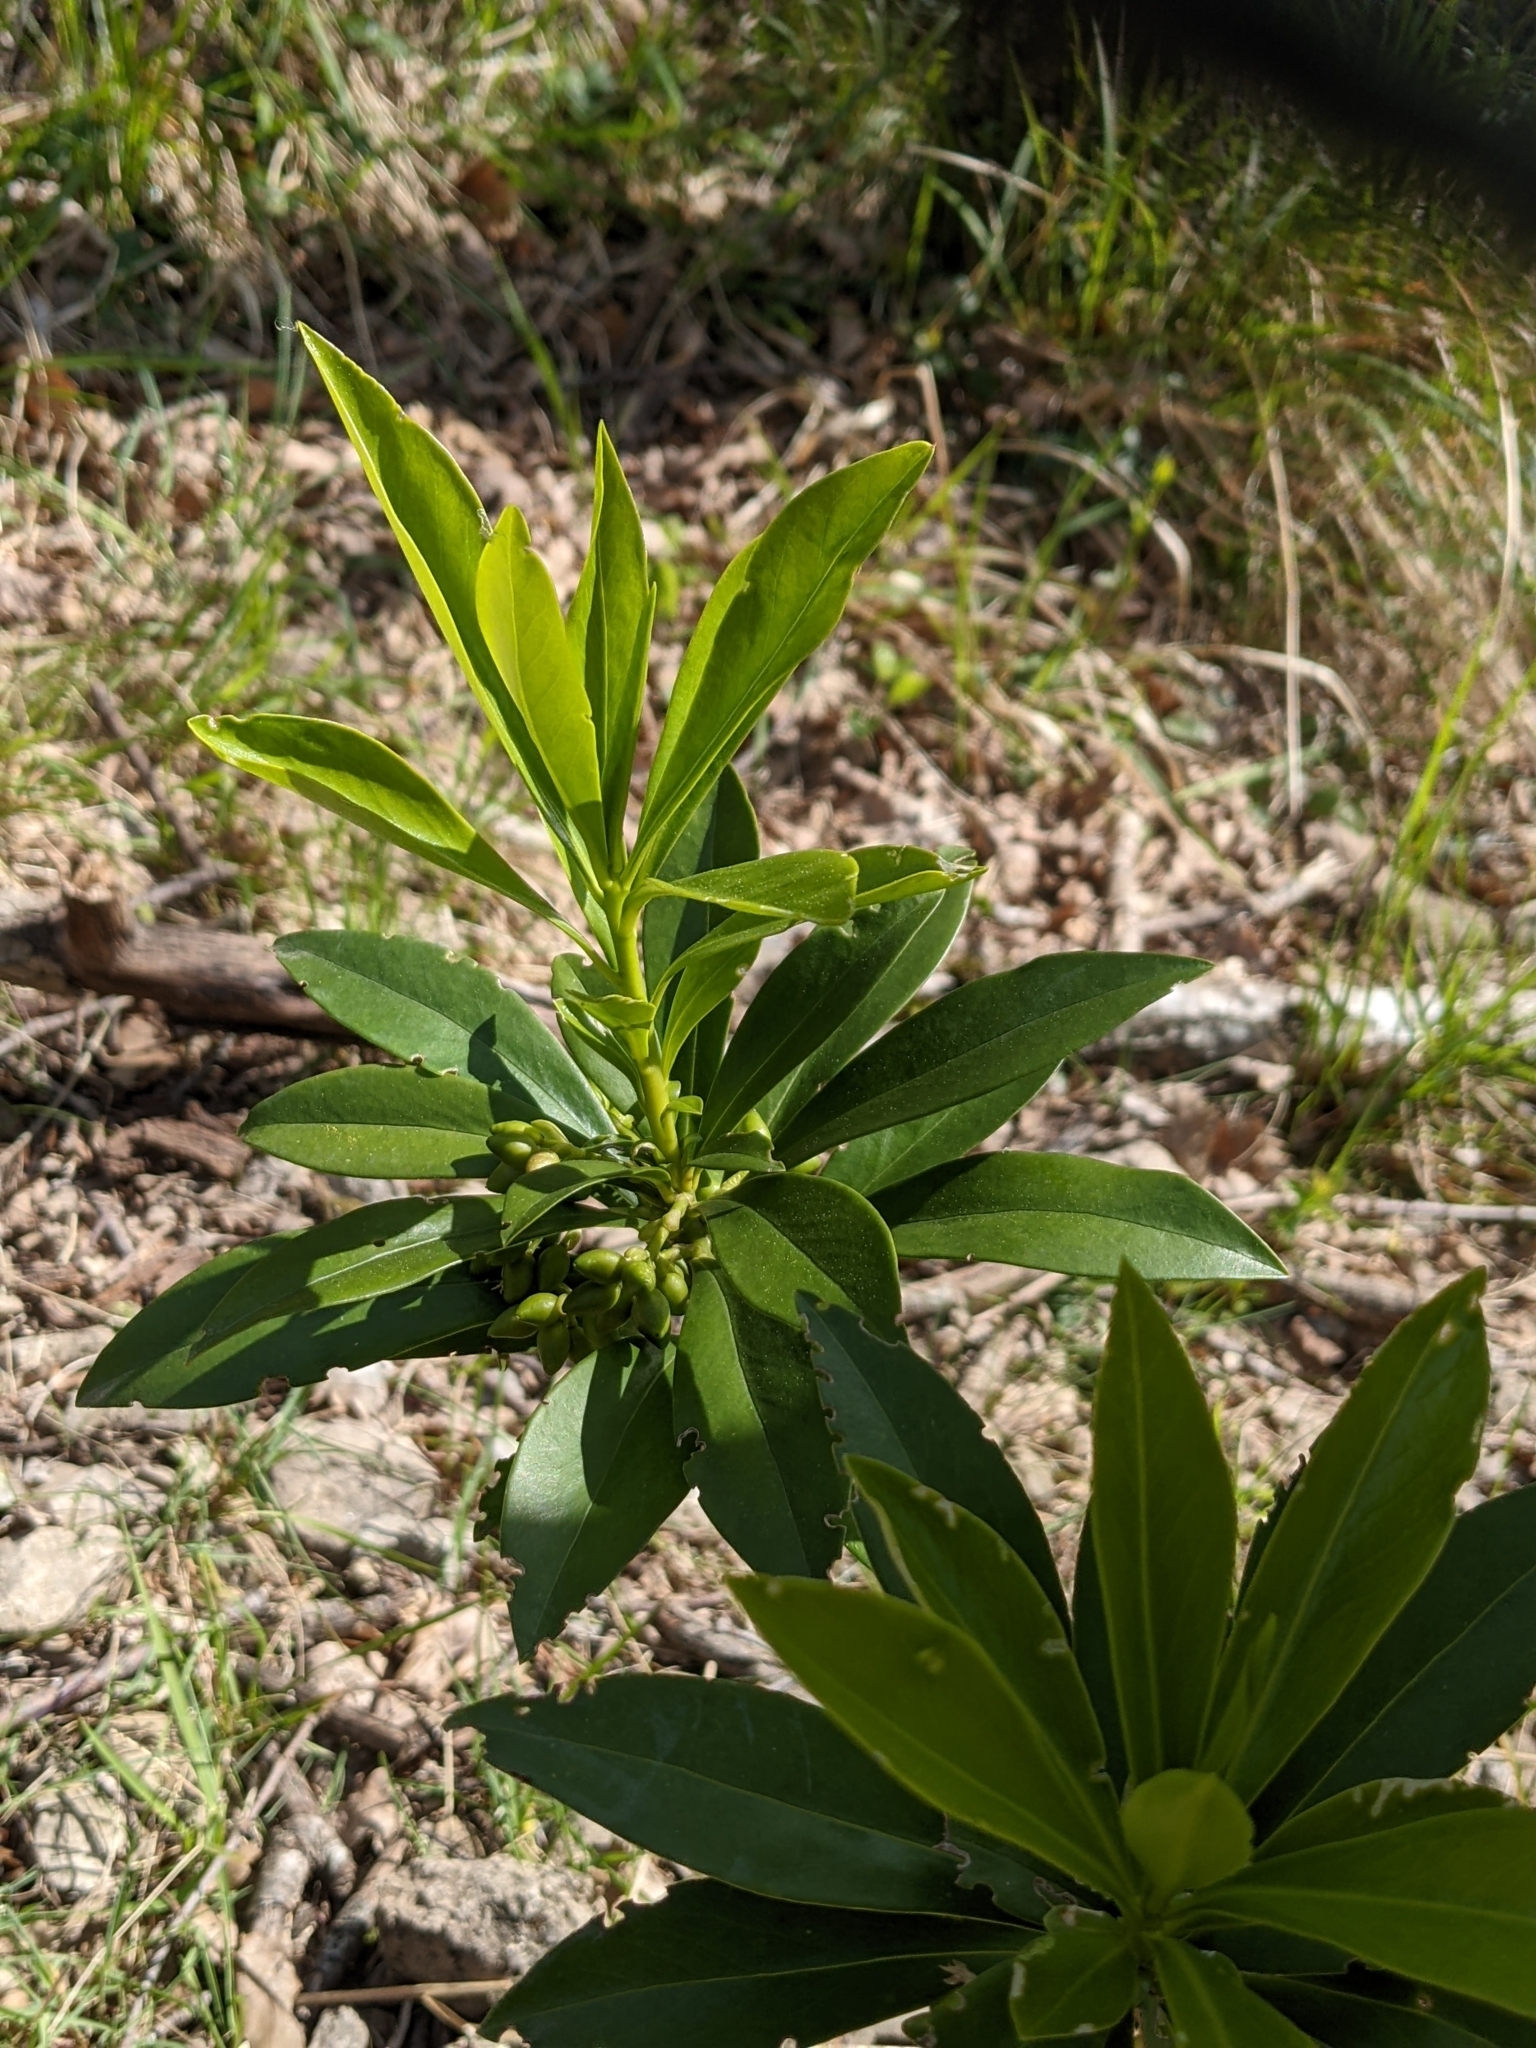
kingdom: Plantae
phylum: Tracheophyta
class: Magnoliopsida
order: Malvales
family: Thymelaeaceae
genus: Daphne
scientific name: Daphne laureola
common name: Spurge-laurel
